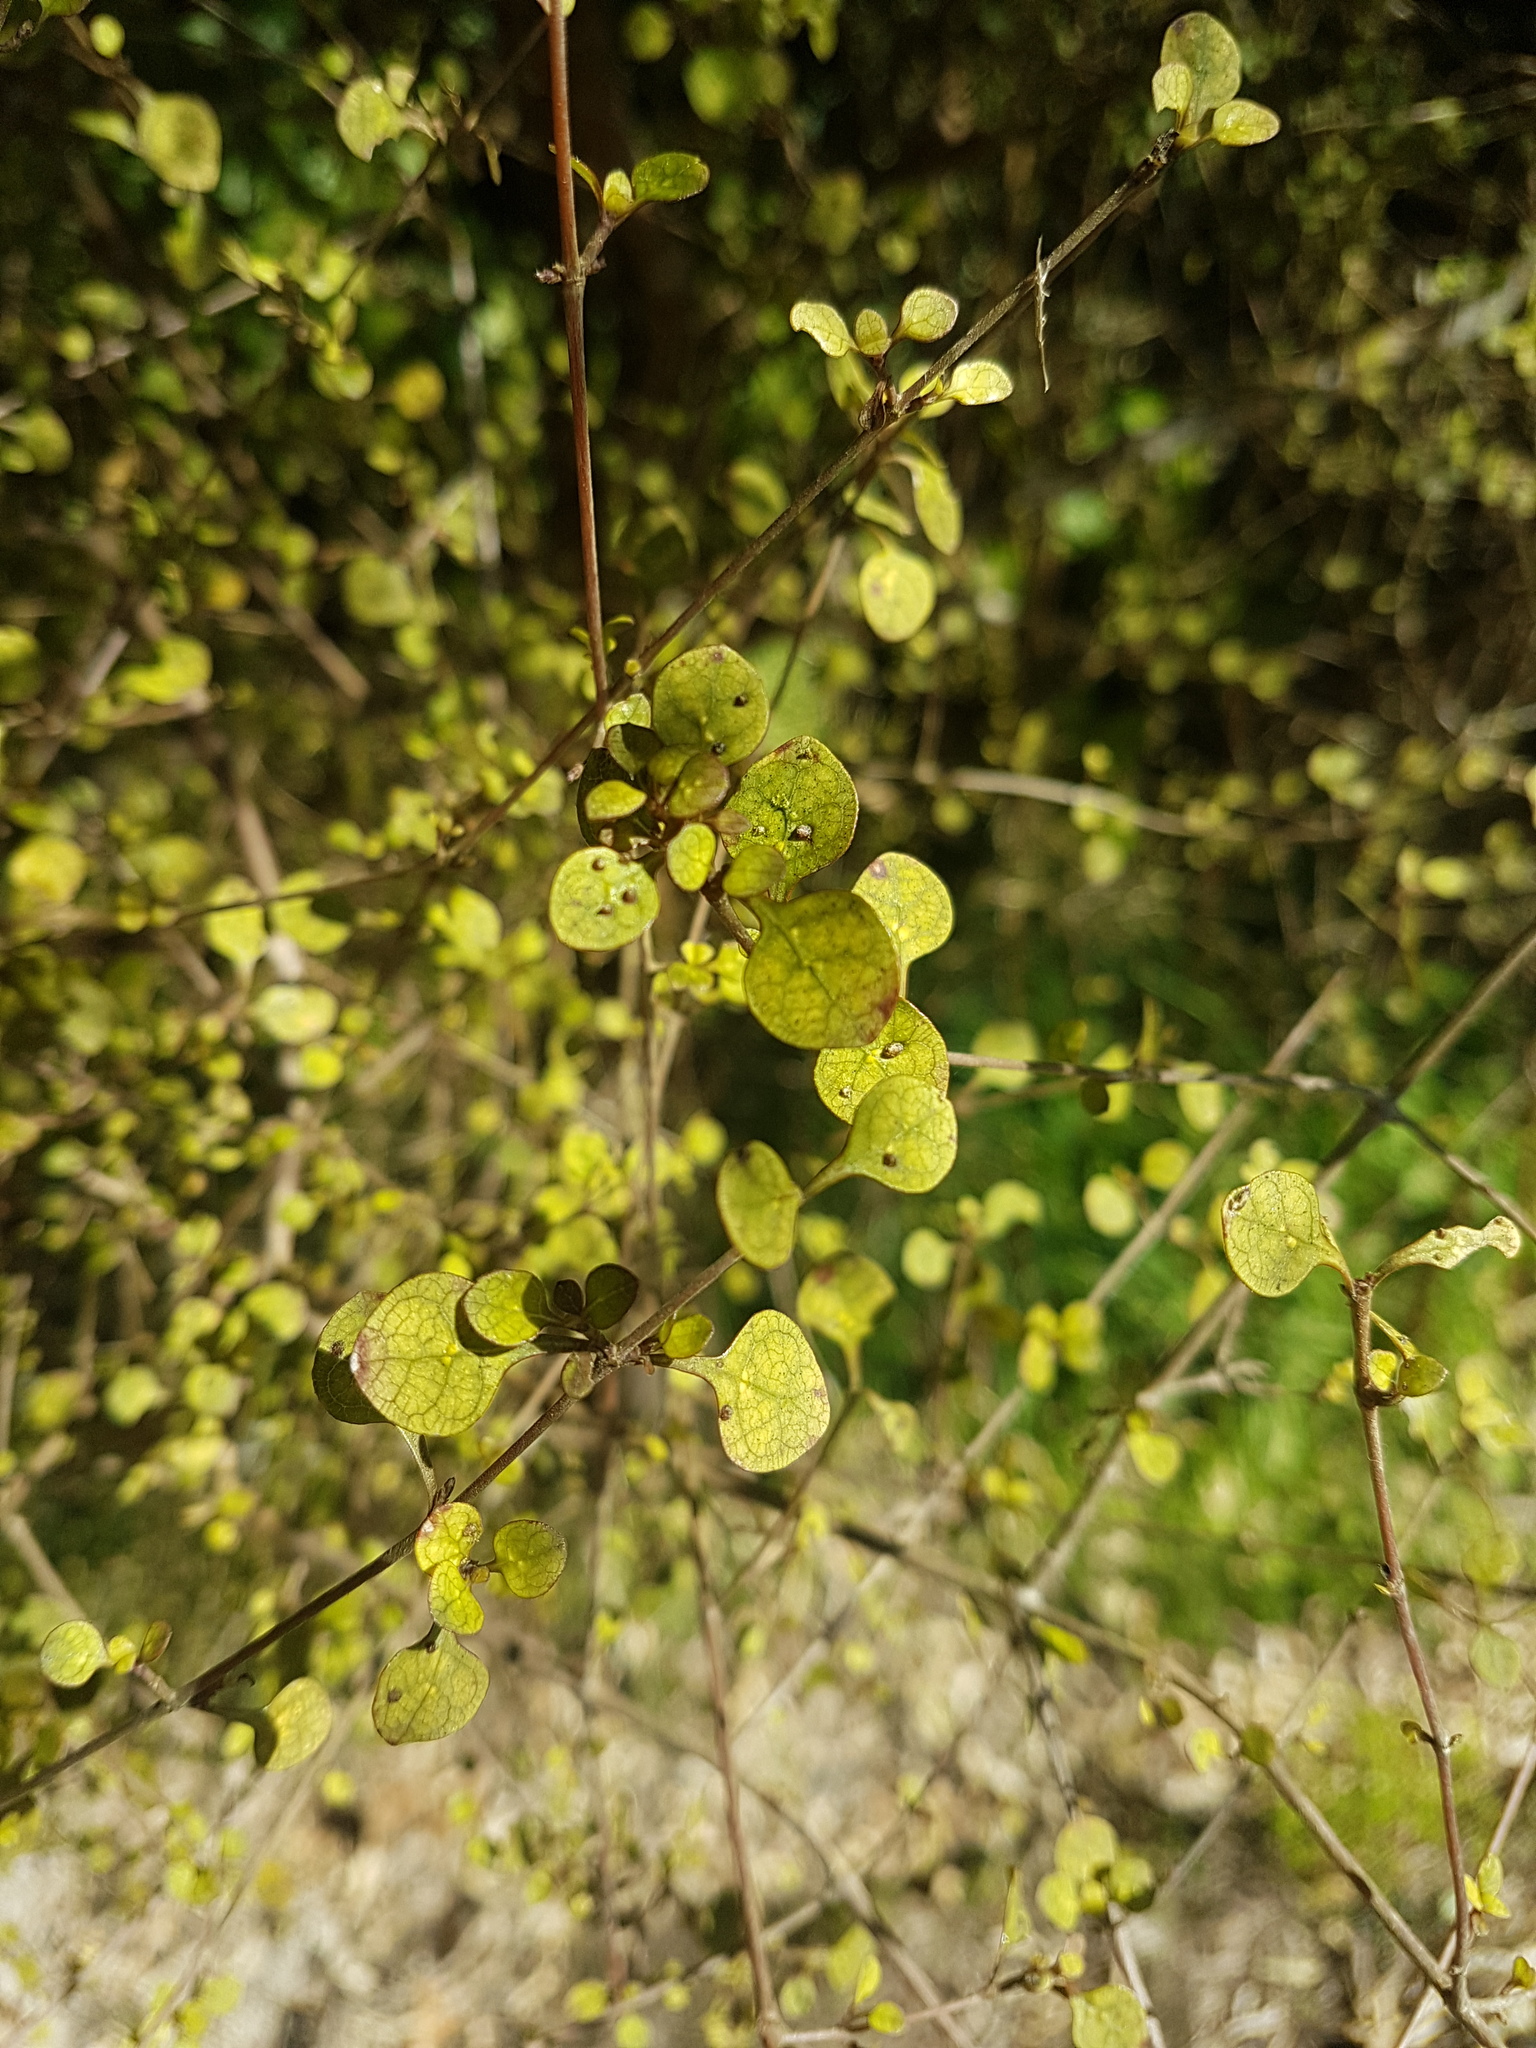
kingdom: Plantae
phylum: Tracheophyta
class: Magnoliopsida
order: Gentianales
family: Rubiaceae
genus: Coprosma
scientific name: Coprosma tenuicaulis
